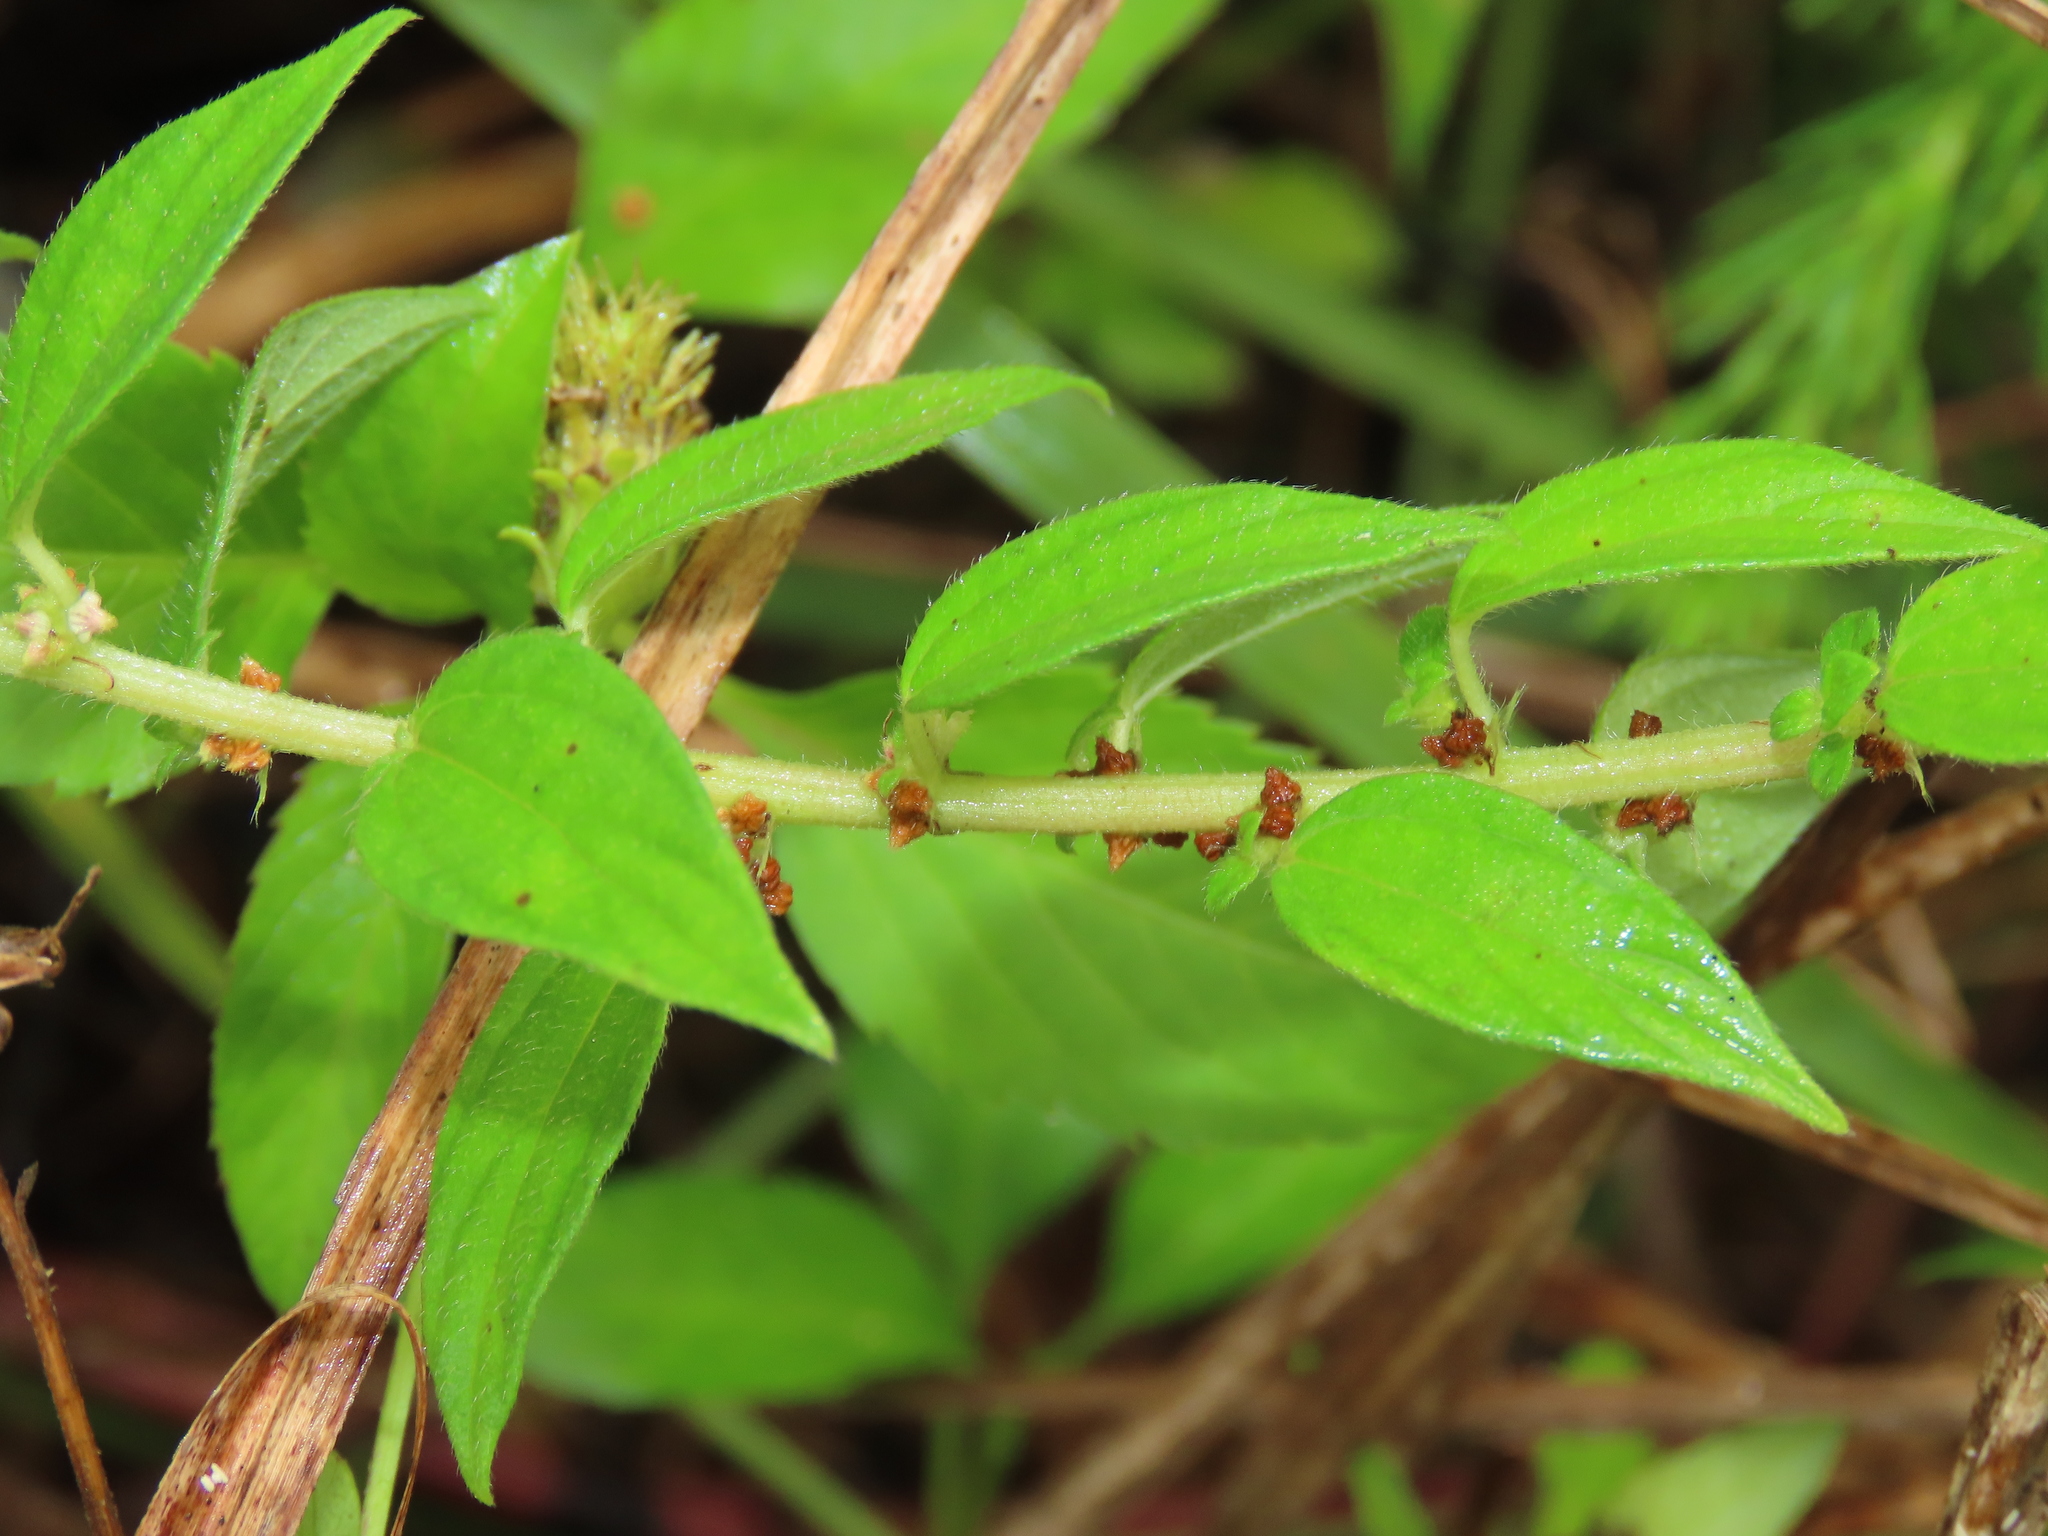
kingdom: Plantae
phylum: Tracheophyta
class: Magnoliopsida
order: Rosales
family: Urticaceae
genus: Pouzolzia
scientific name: Pouzolzia zeylanica
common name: Graceful pouzolzsbush
